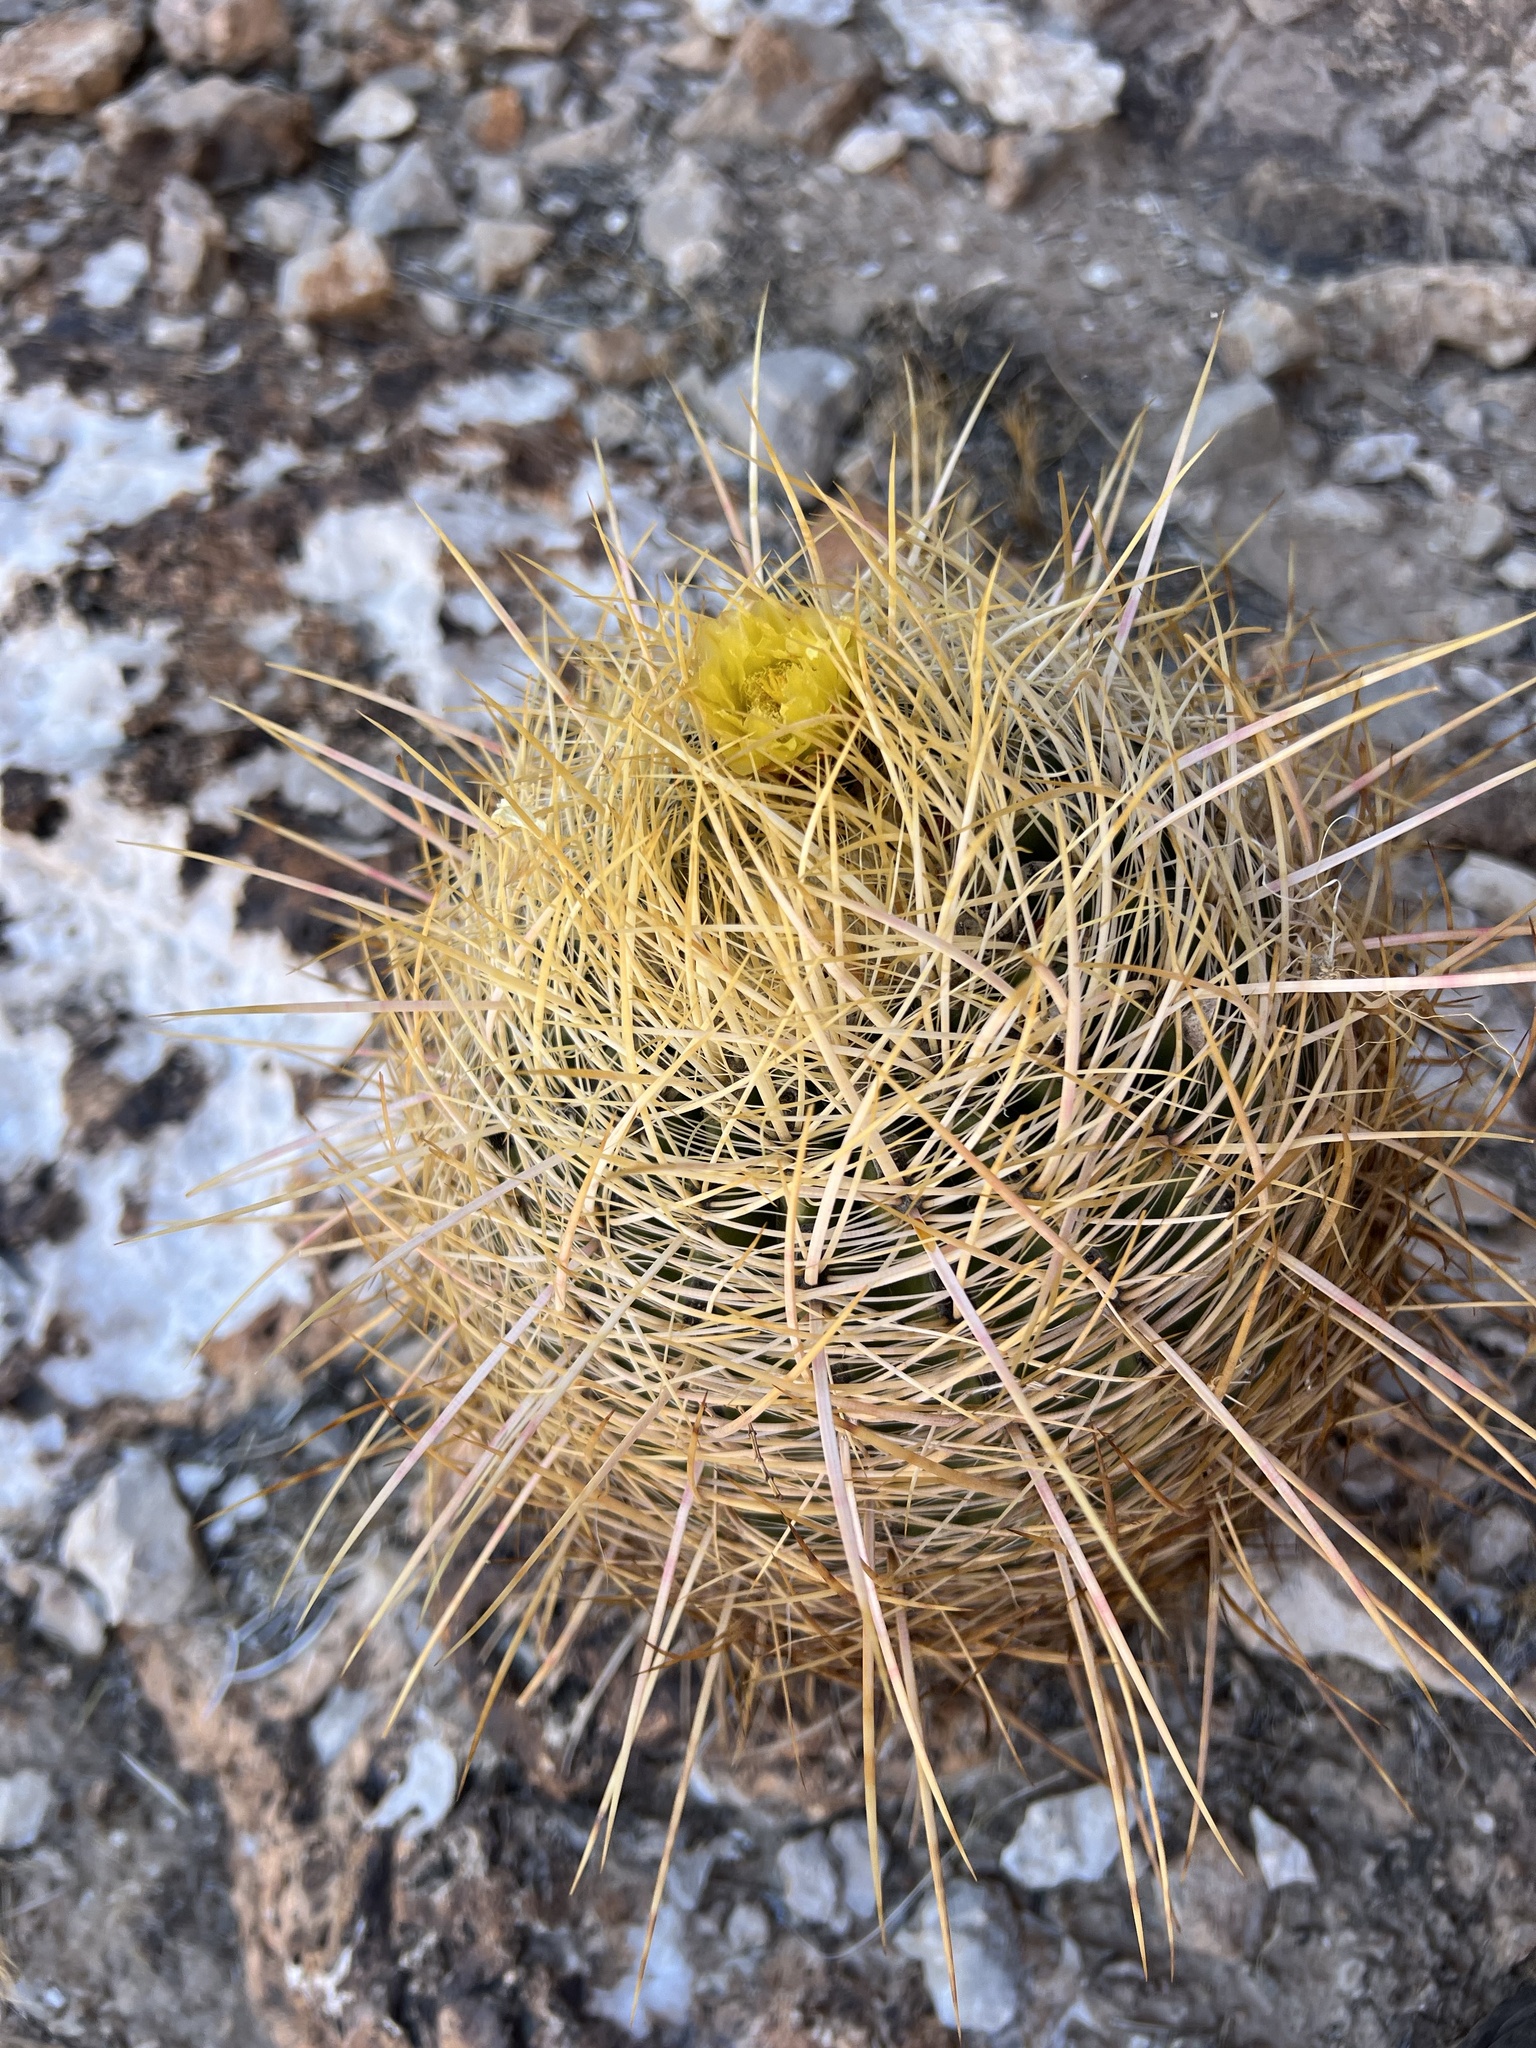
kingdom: Plantae
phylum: Tracheophyta
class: Magnoliopsida
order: Caryophyllales
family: Cactaceae
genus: Ferocactus
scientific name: Ferocactus cylindraceus
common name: California barrel cactus
